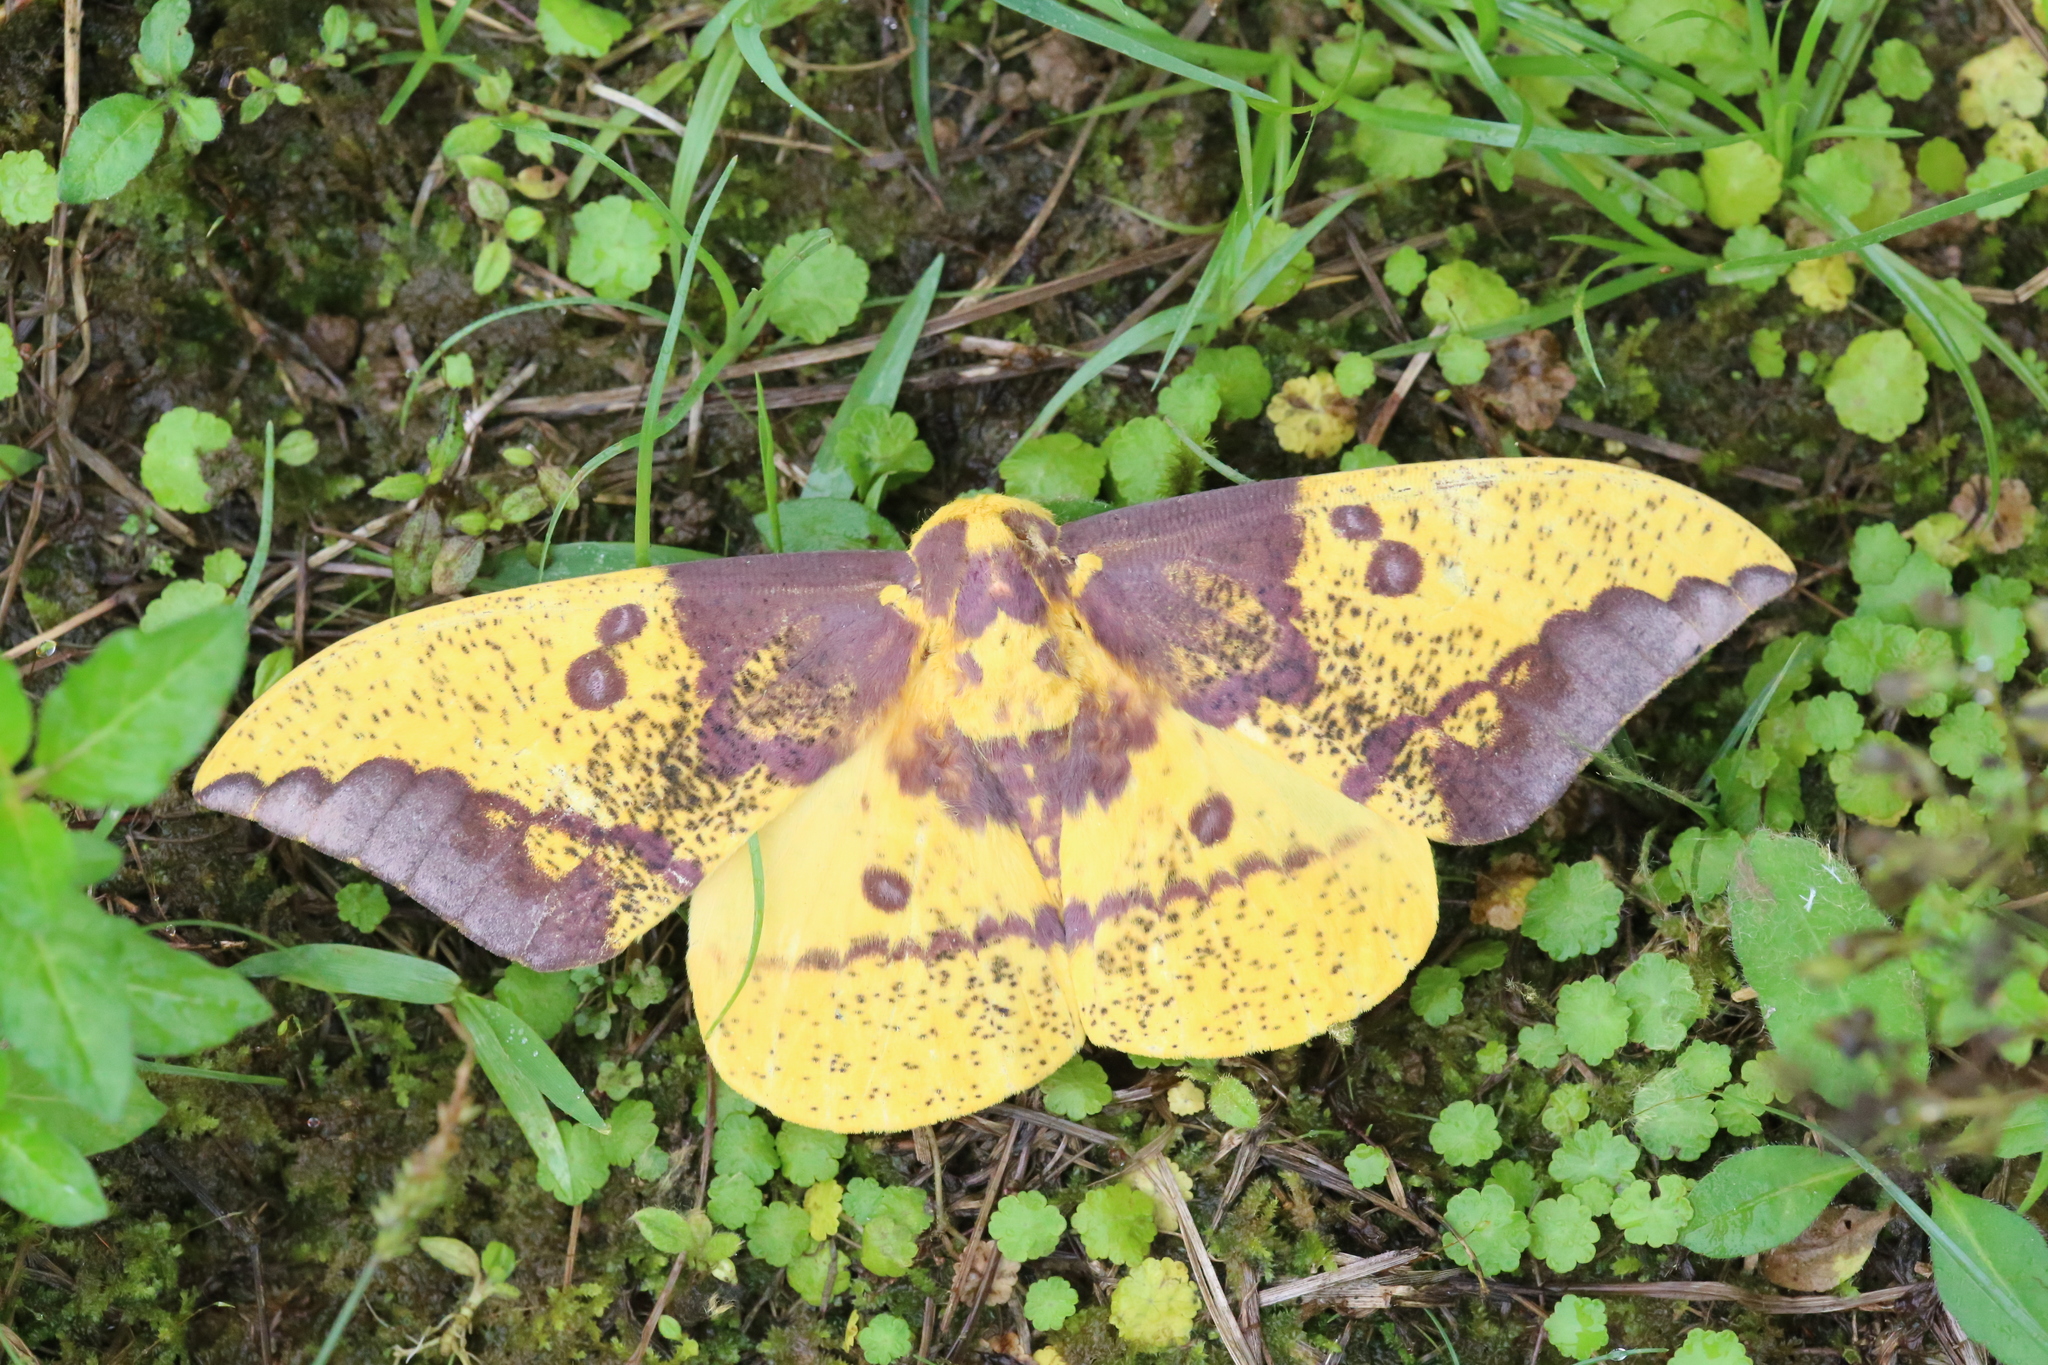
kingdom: Animalia
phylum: Arthropoda
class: Insecta
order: Lepidoptera
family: Saturniidae
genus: Eacles
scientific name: Eacles imperialis
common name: Imperial moth
